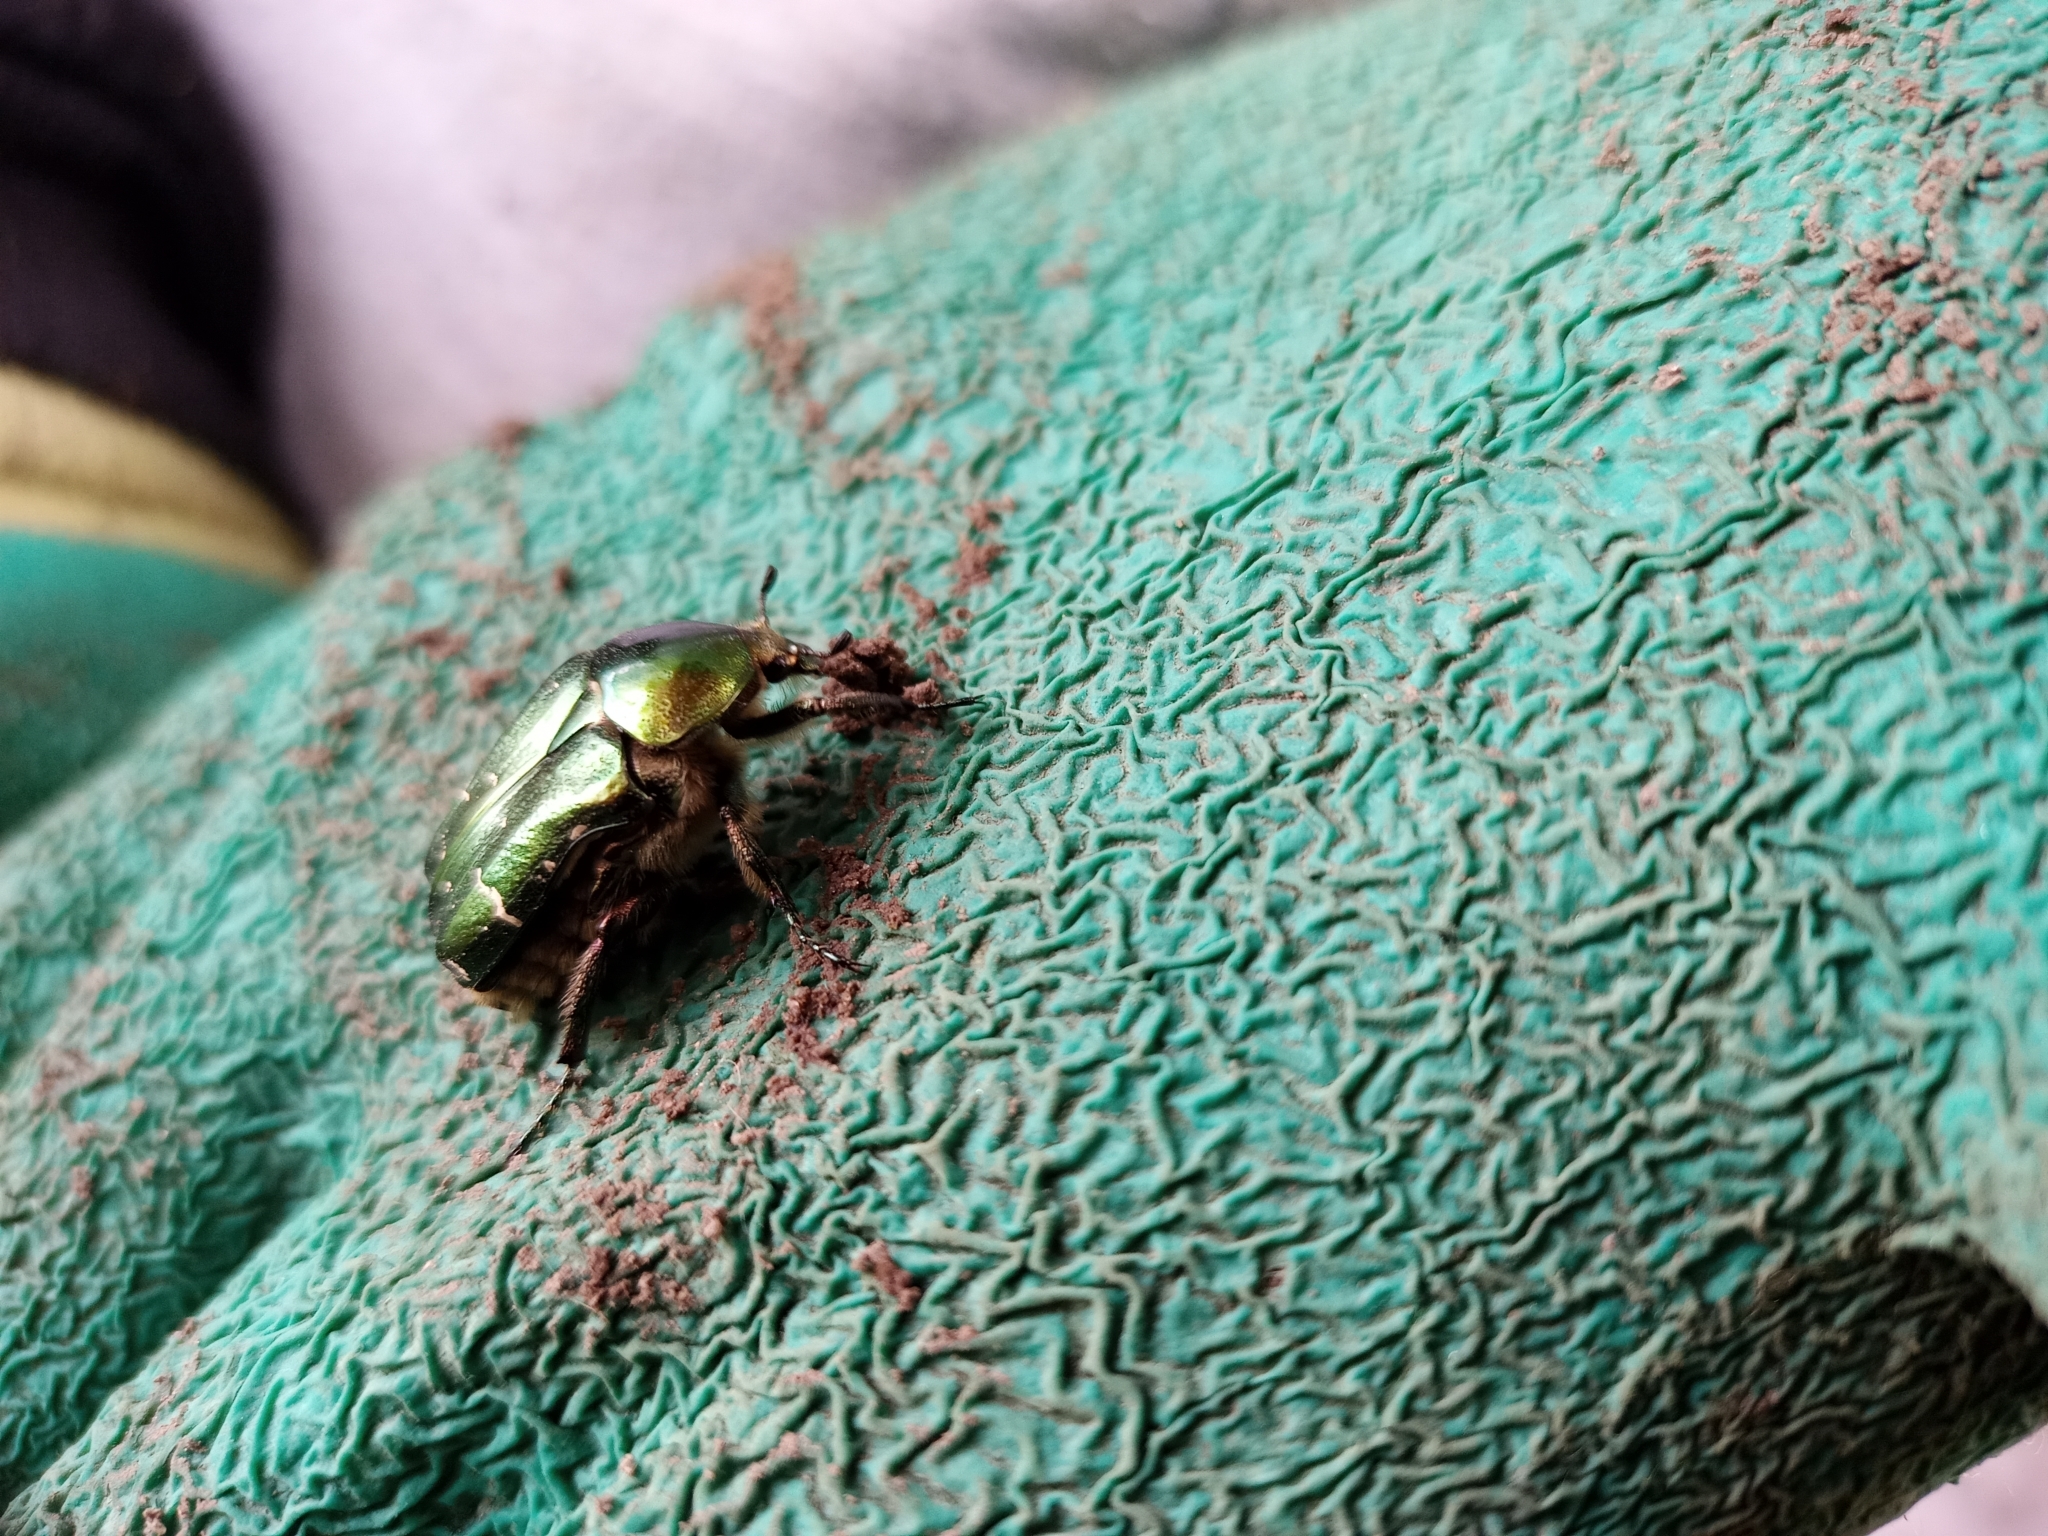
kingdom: Animalia
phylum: Arthropoda
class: Insecta
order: Coleoptera
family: Scarabaeidae
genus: Cetonia
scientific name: Cetonia aurata
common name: Rose chafer
